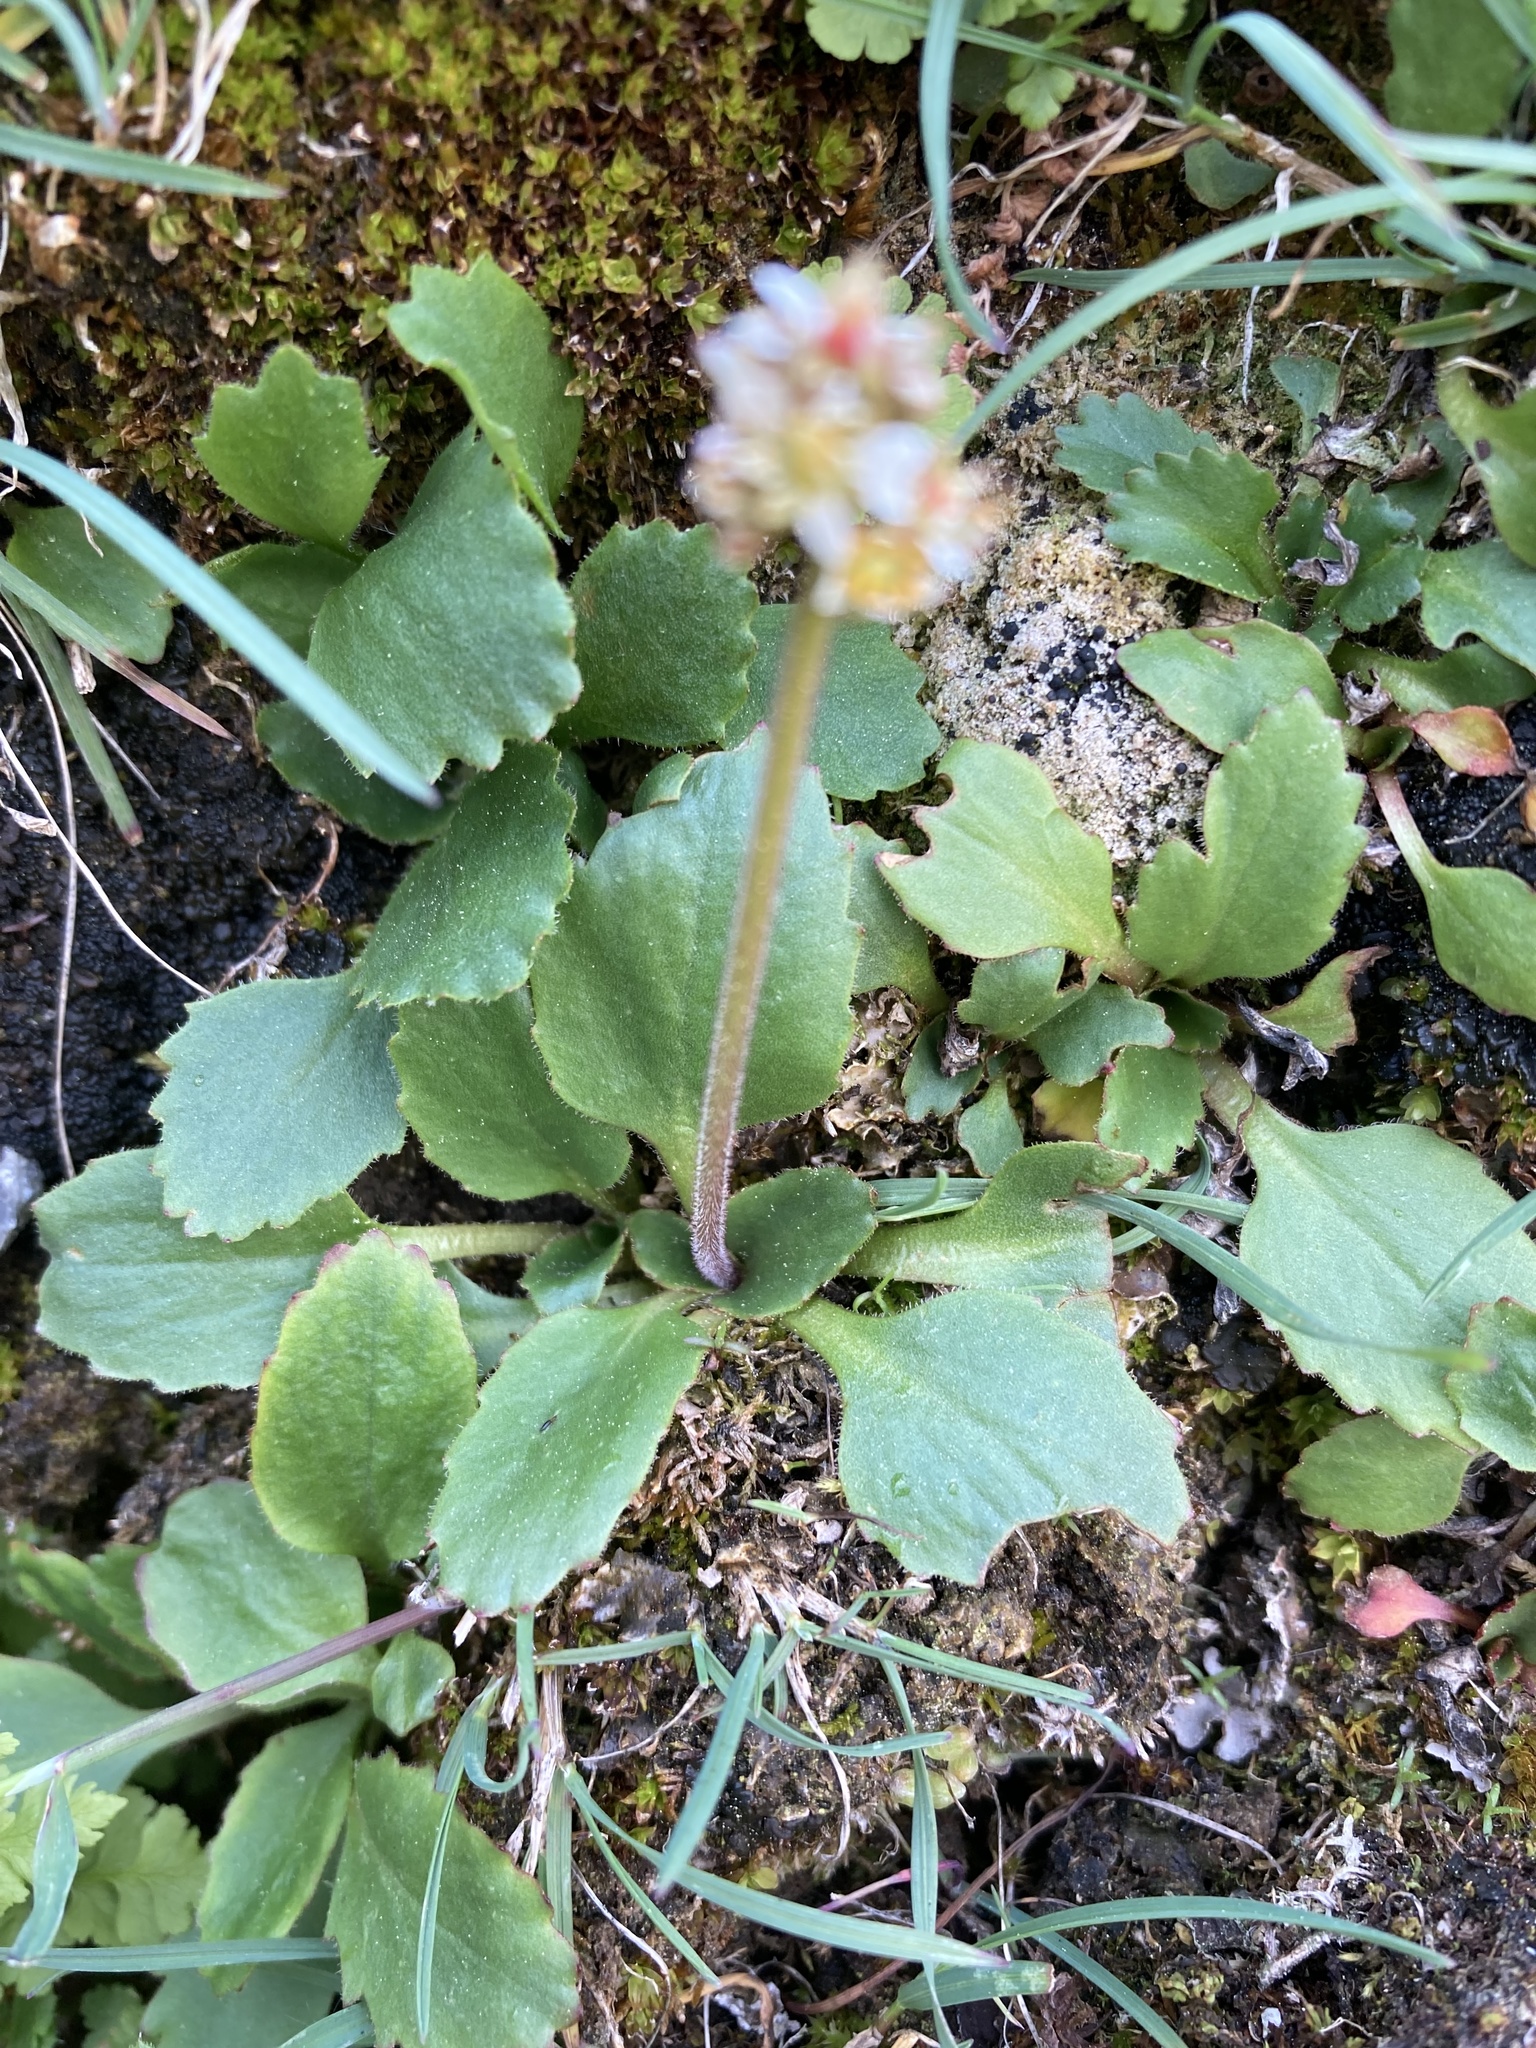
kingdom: Plantae
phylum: Tracheophyta
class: Magnoliopsida
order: Saxifragales
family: Saxifragaceae
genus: Micranthes
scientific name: Micranthes occidentalis
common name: Alberta saxifrage
